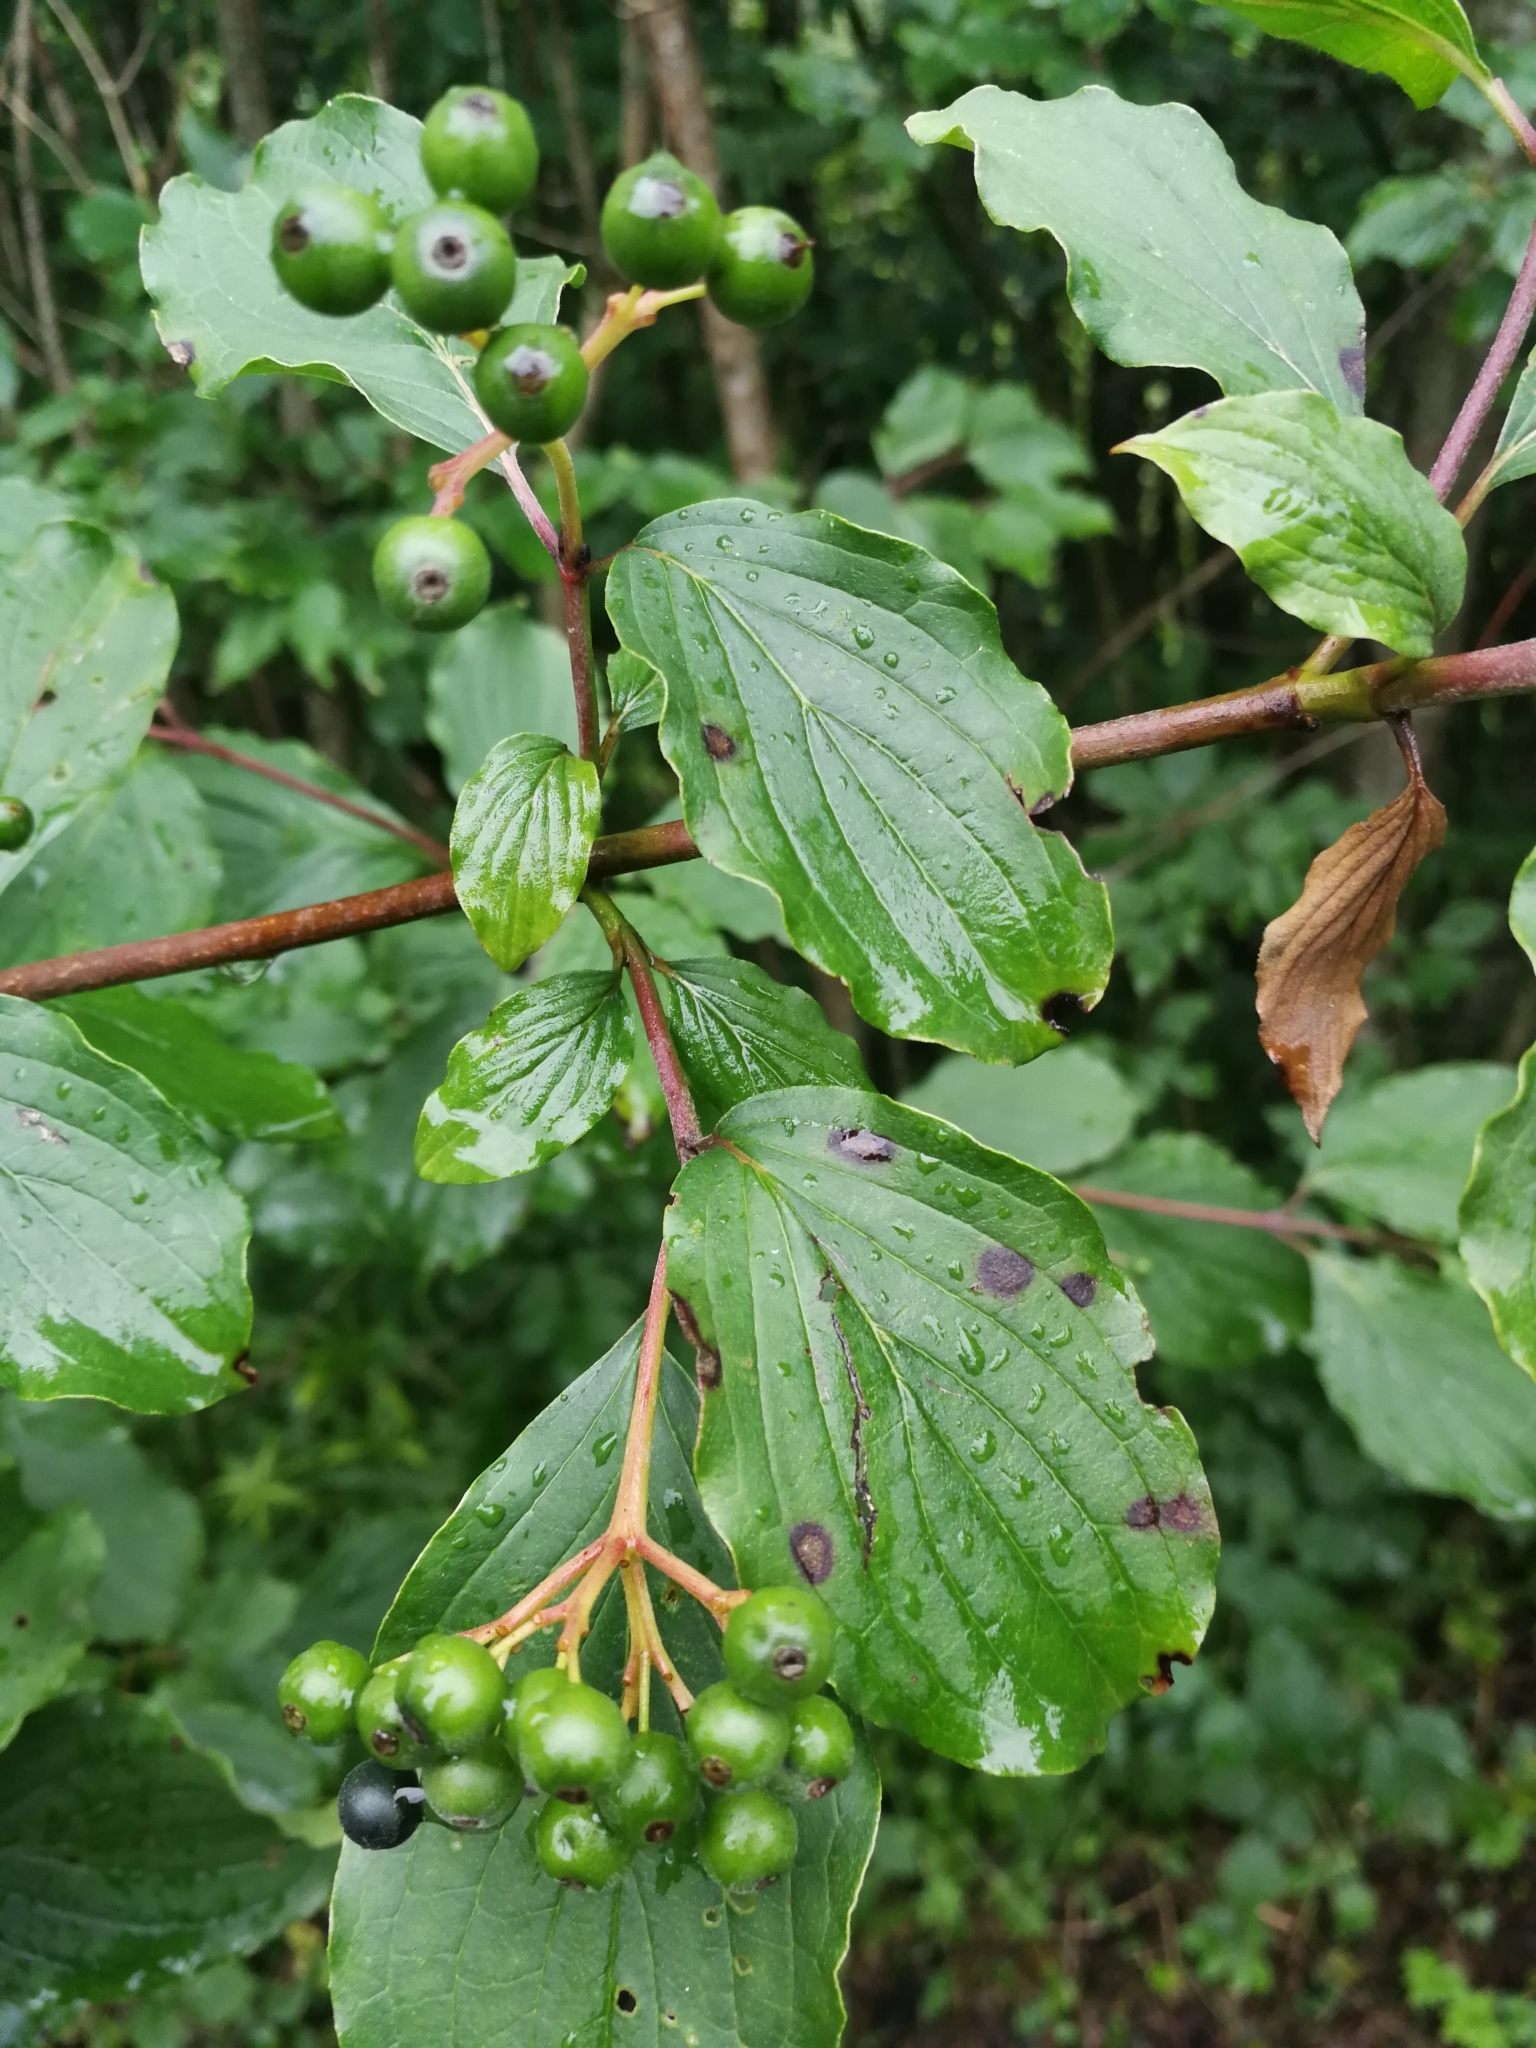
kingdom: Plantae
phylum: Tracheophyta
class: Magnoliopsida
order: Cornales
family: Cornaceae
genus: Cornus
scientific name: Cornus sanguinea
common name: Dogwood
